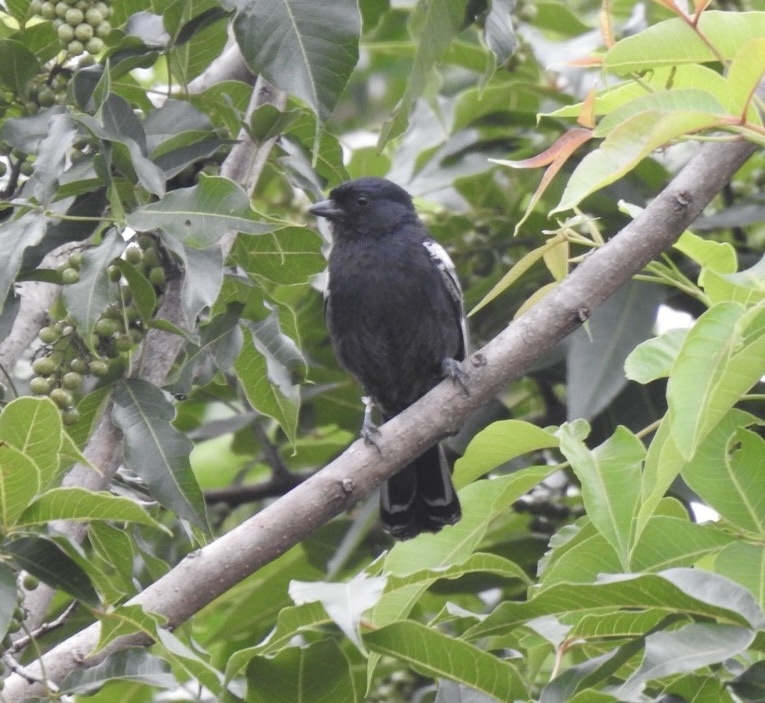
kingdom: Animalia
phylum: Chordata
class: Aves
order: Passeriformes
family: Paridae
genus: Parus
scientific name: Parus niger
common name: Southern black tit
